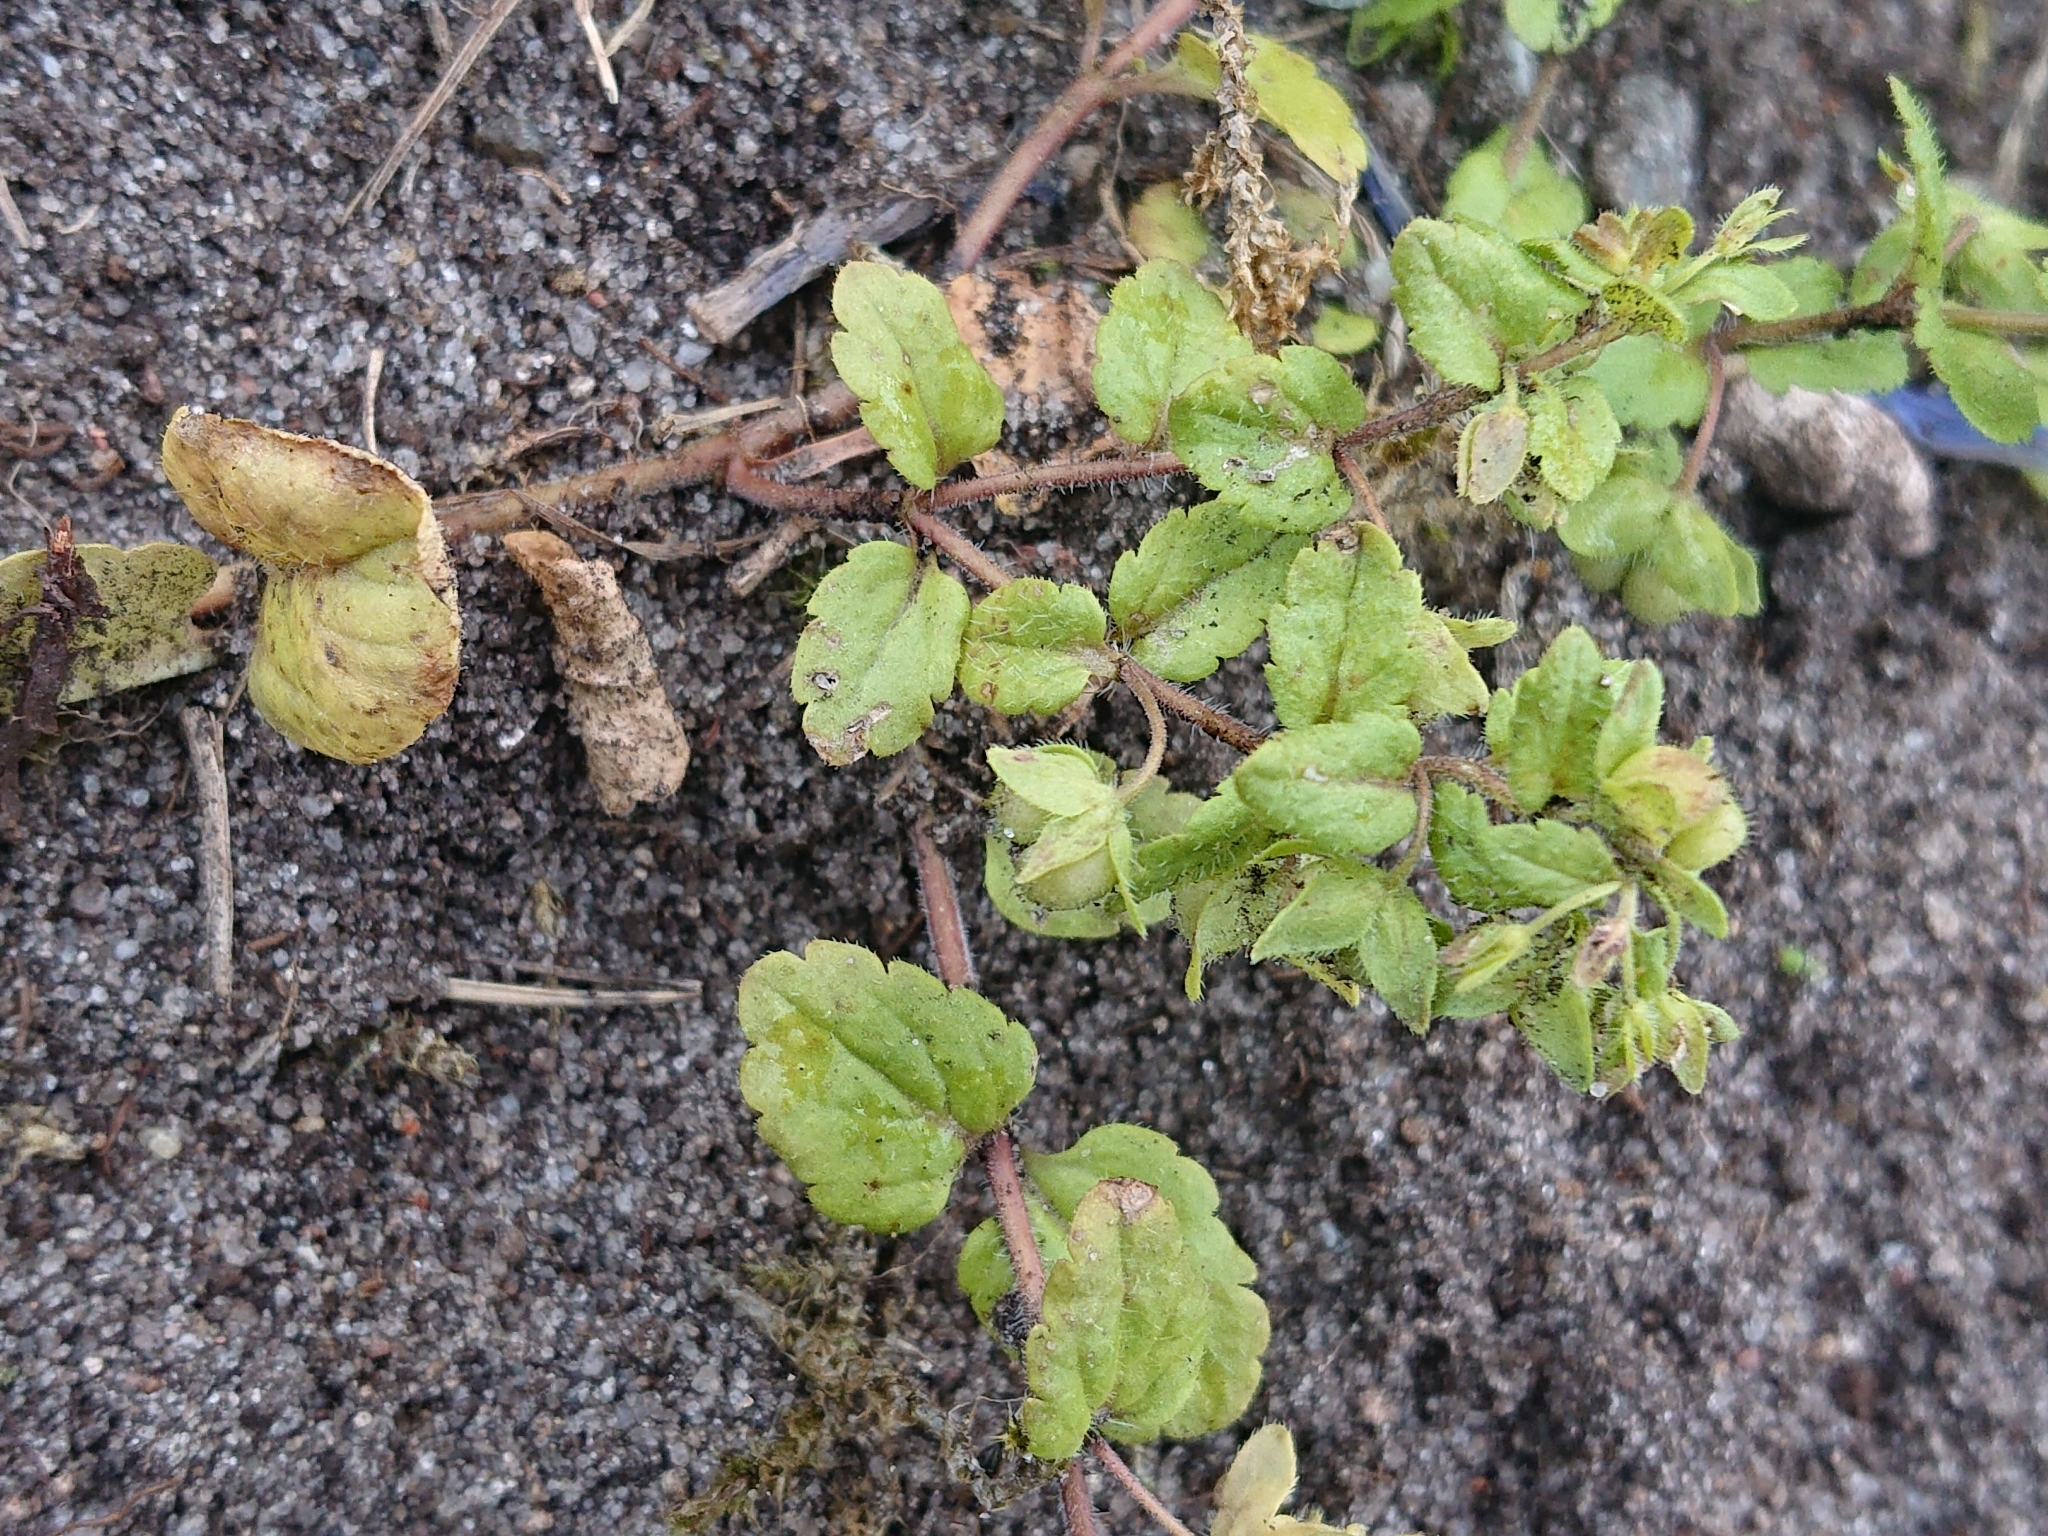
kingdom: Plantae
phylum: Tracheophyta
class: Magnoliopsida
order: Lamiales
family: Plantaginaceae
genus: Veronica
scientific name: Veronica agrestis
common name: Green field-speedwell
